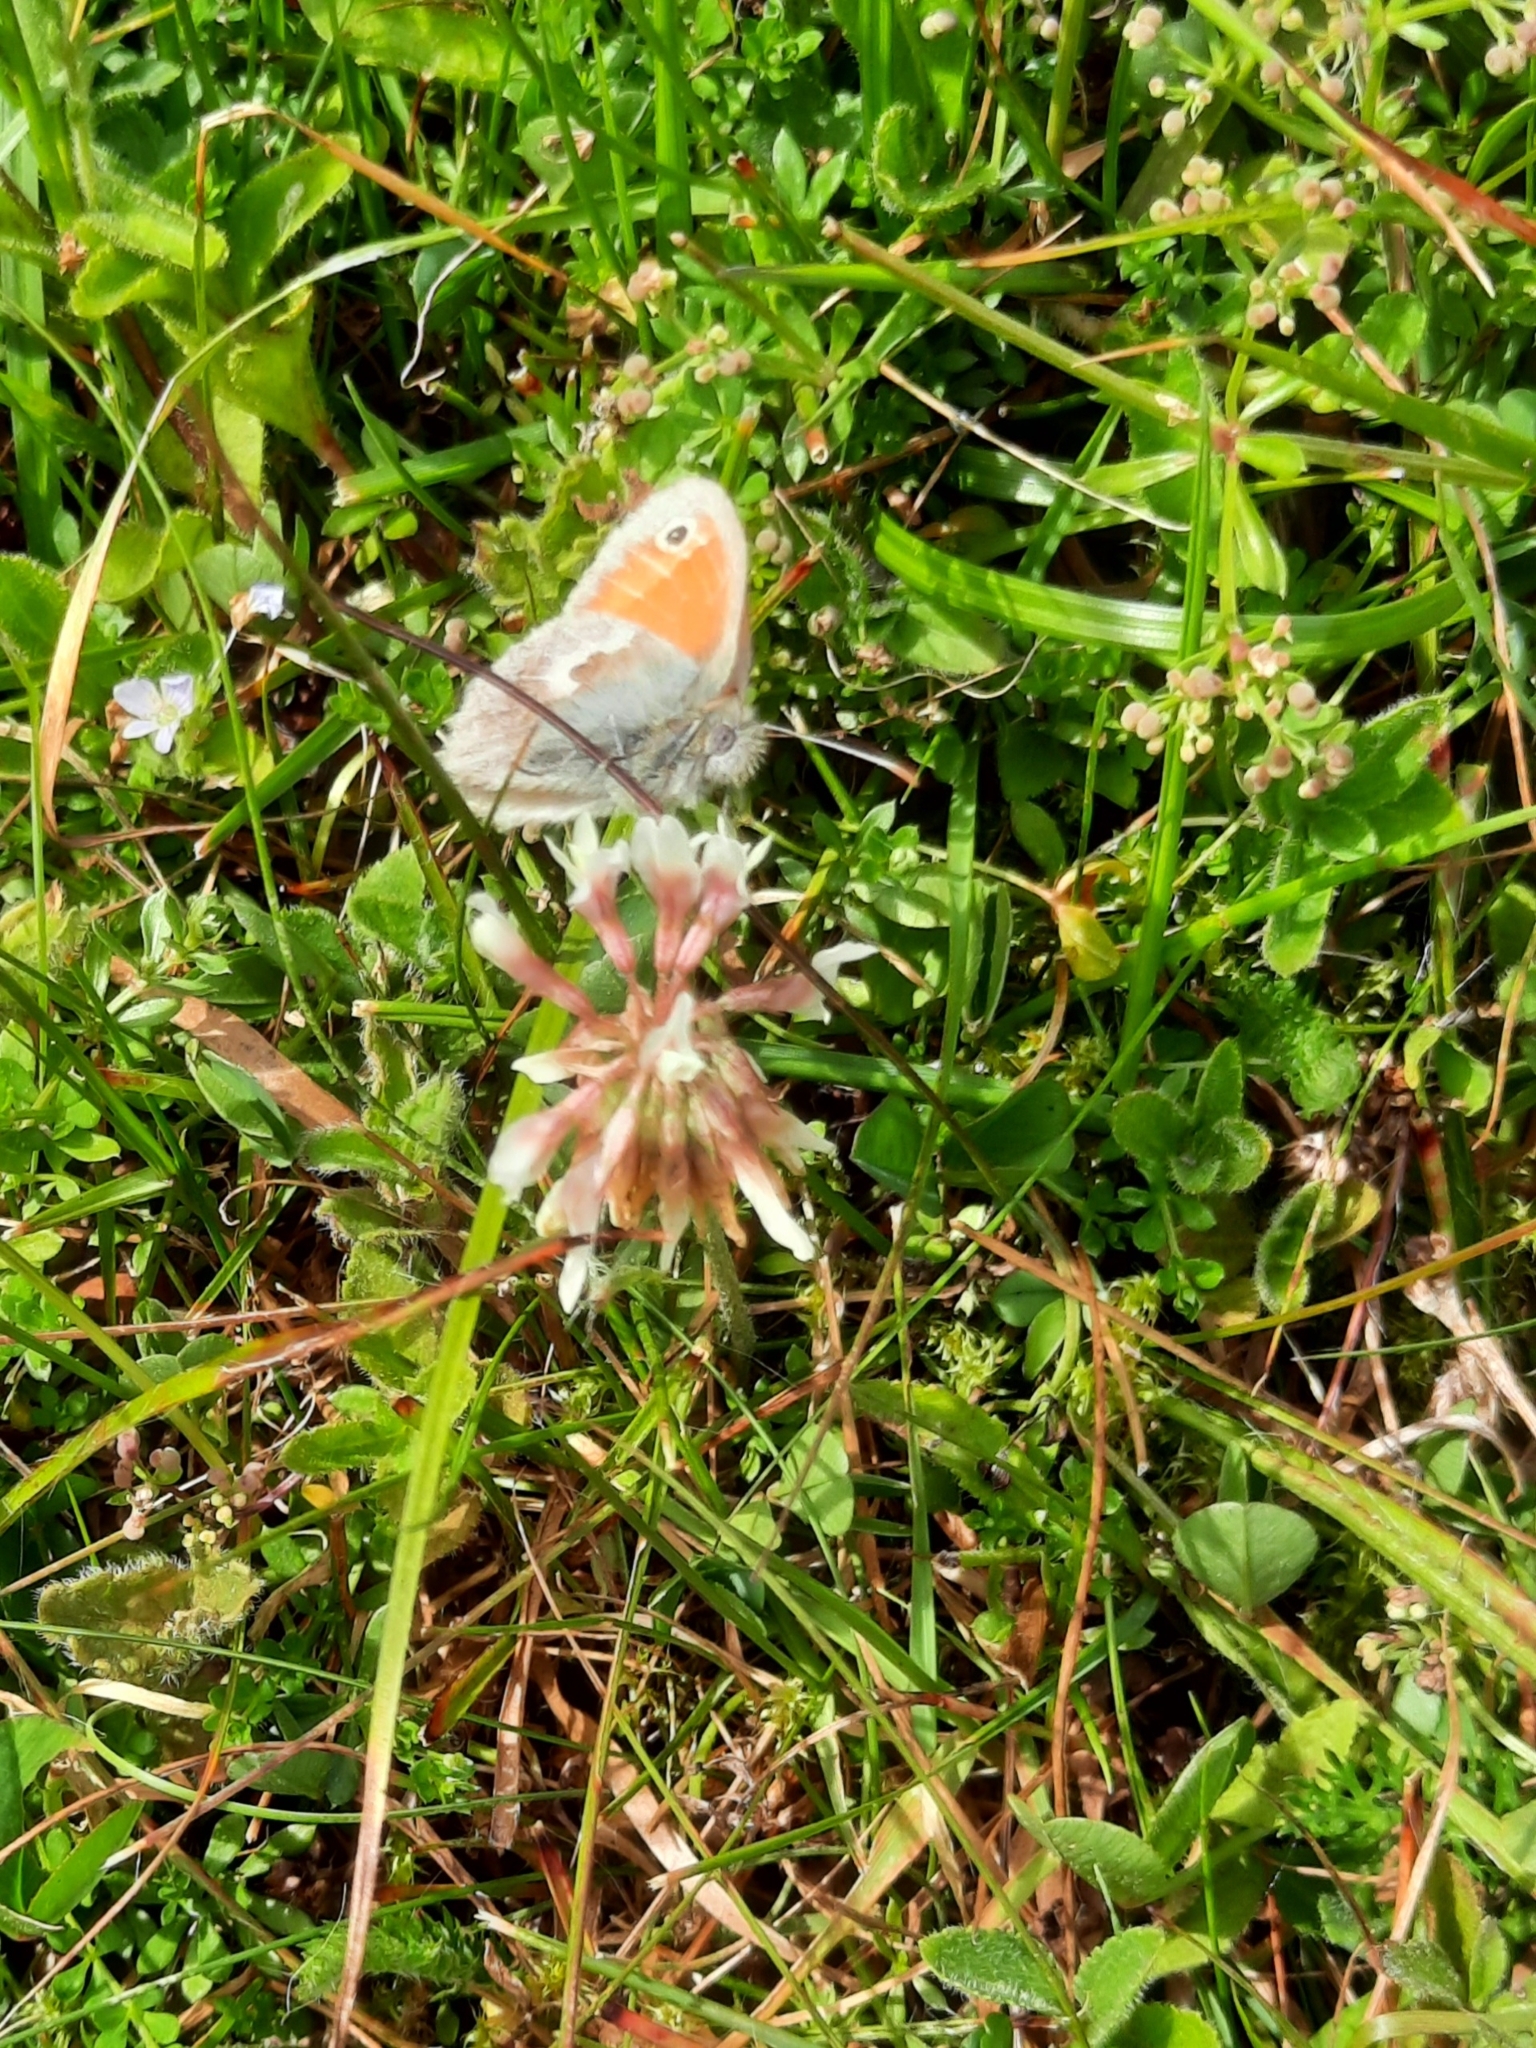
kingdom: Animalia
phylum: Arthropoda
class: Insecta
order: Lepidoptera
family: Nymphalidae
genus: Coenonympha
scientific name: Coenonympha pamphilus
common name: Small heath
